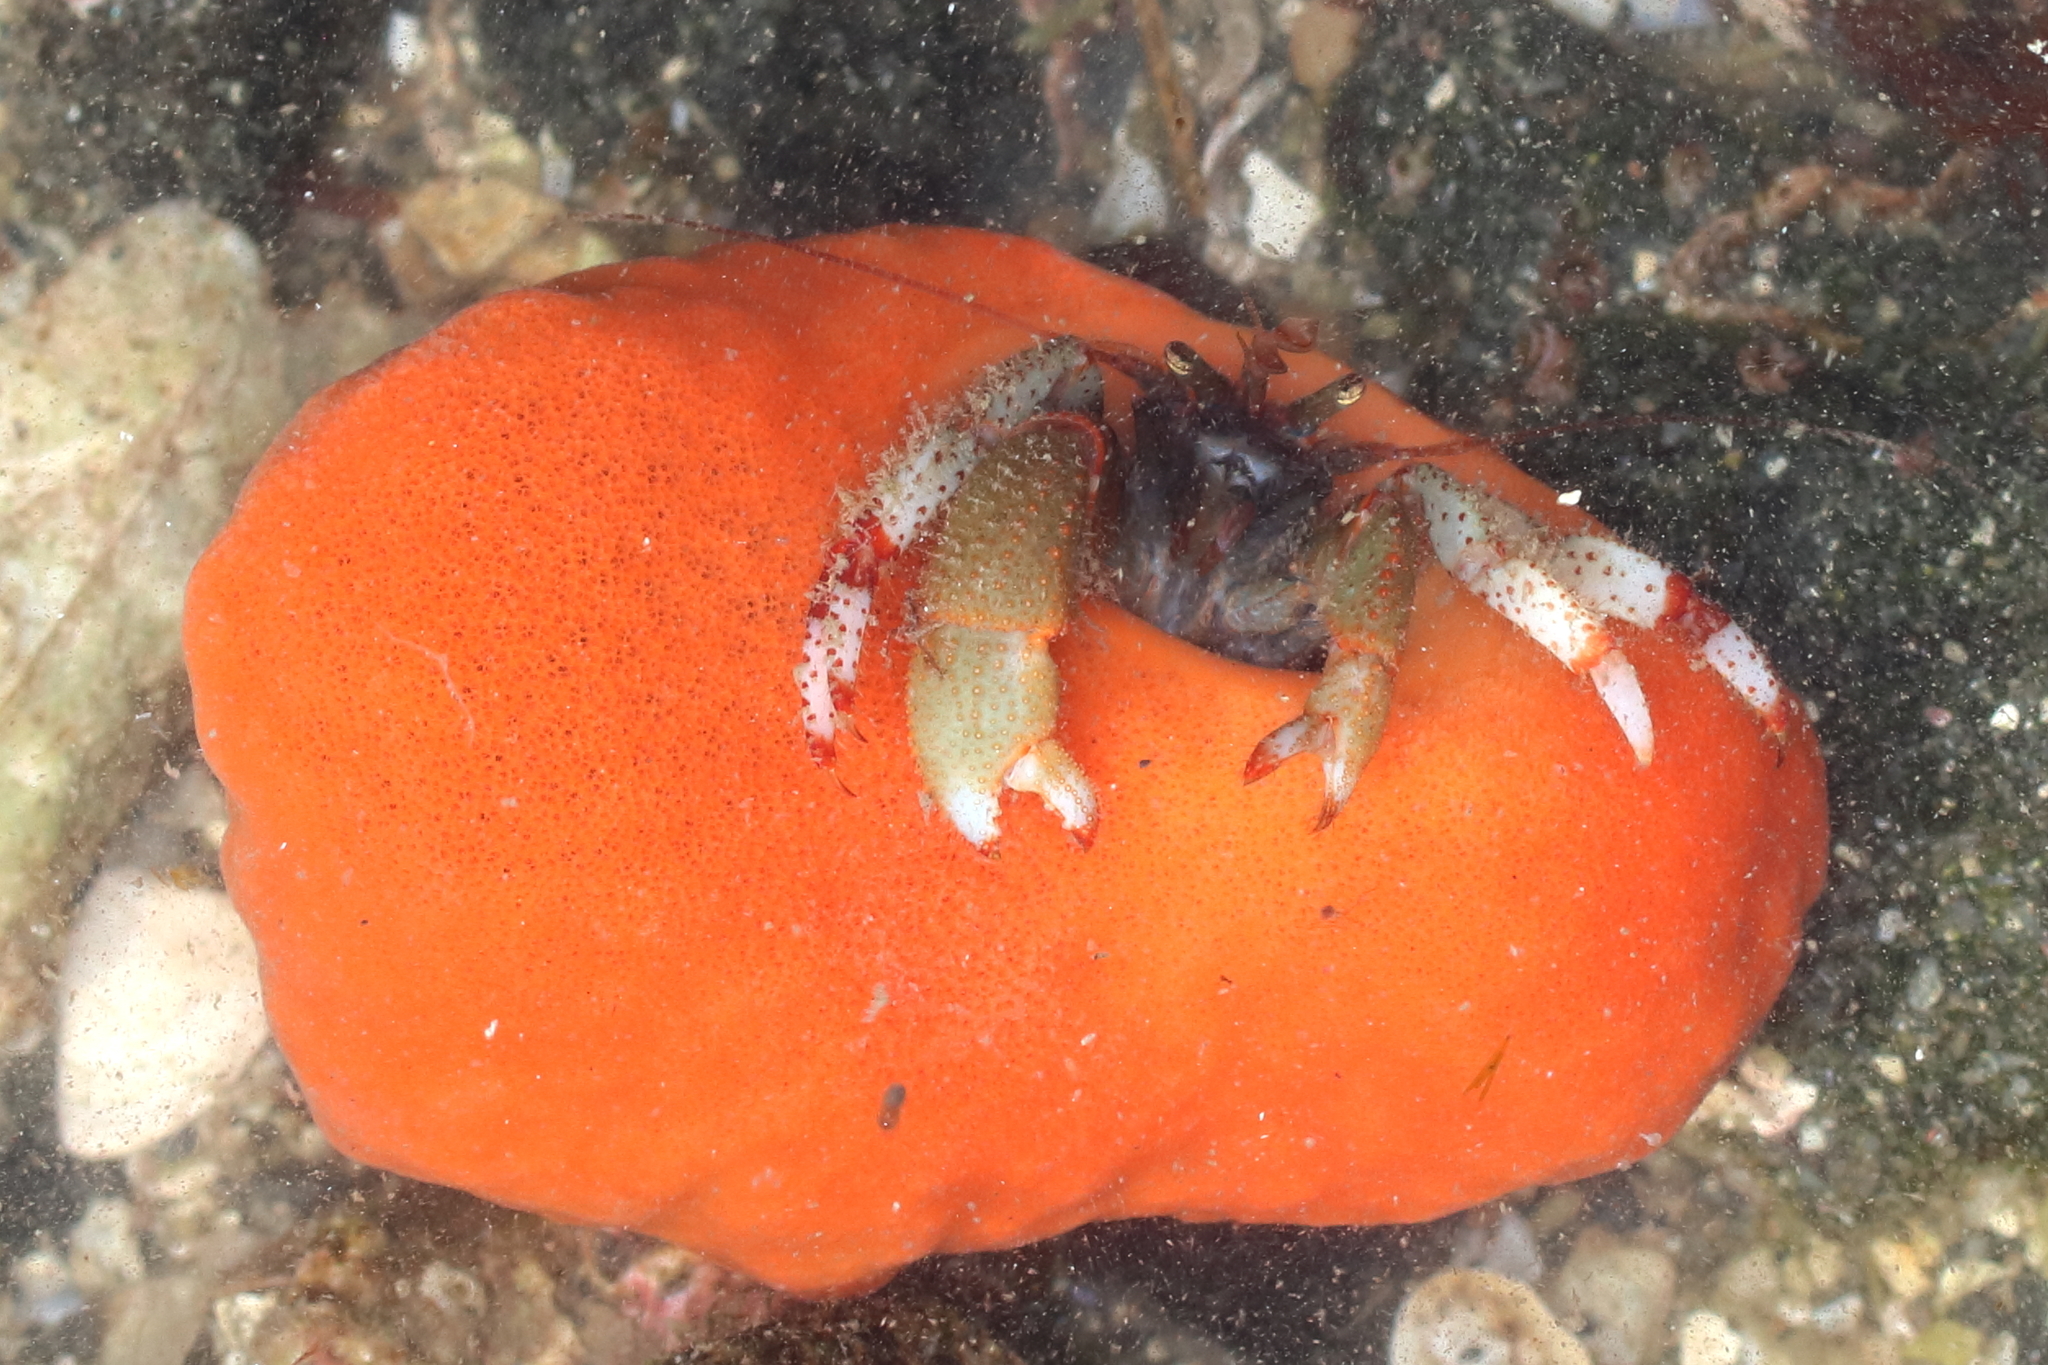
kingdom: Animalia
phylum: Porifera
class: Demospongiae
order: Suberitida
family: Suberitidae
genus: Suberites
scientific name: Suberites latus
